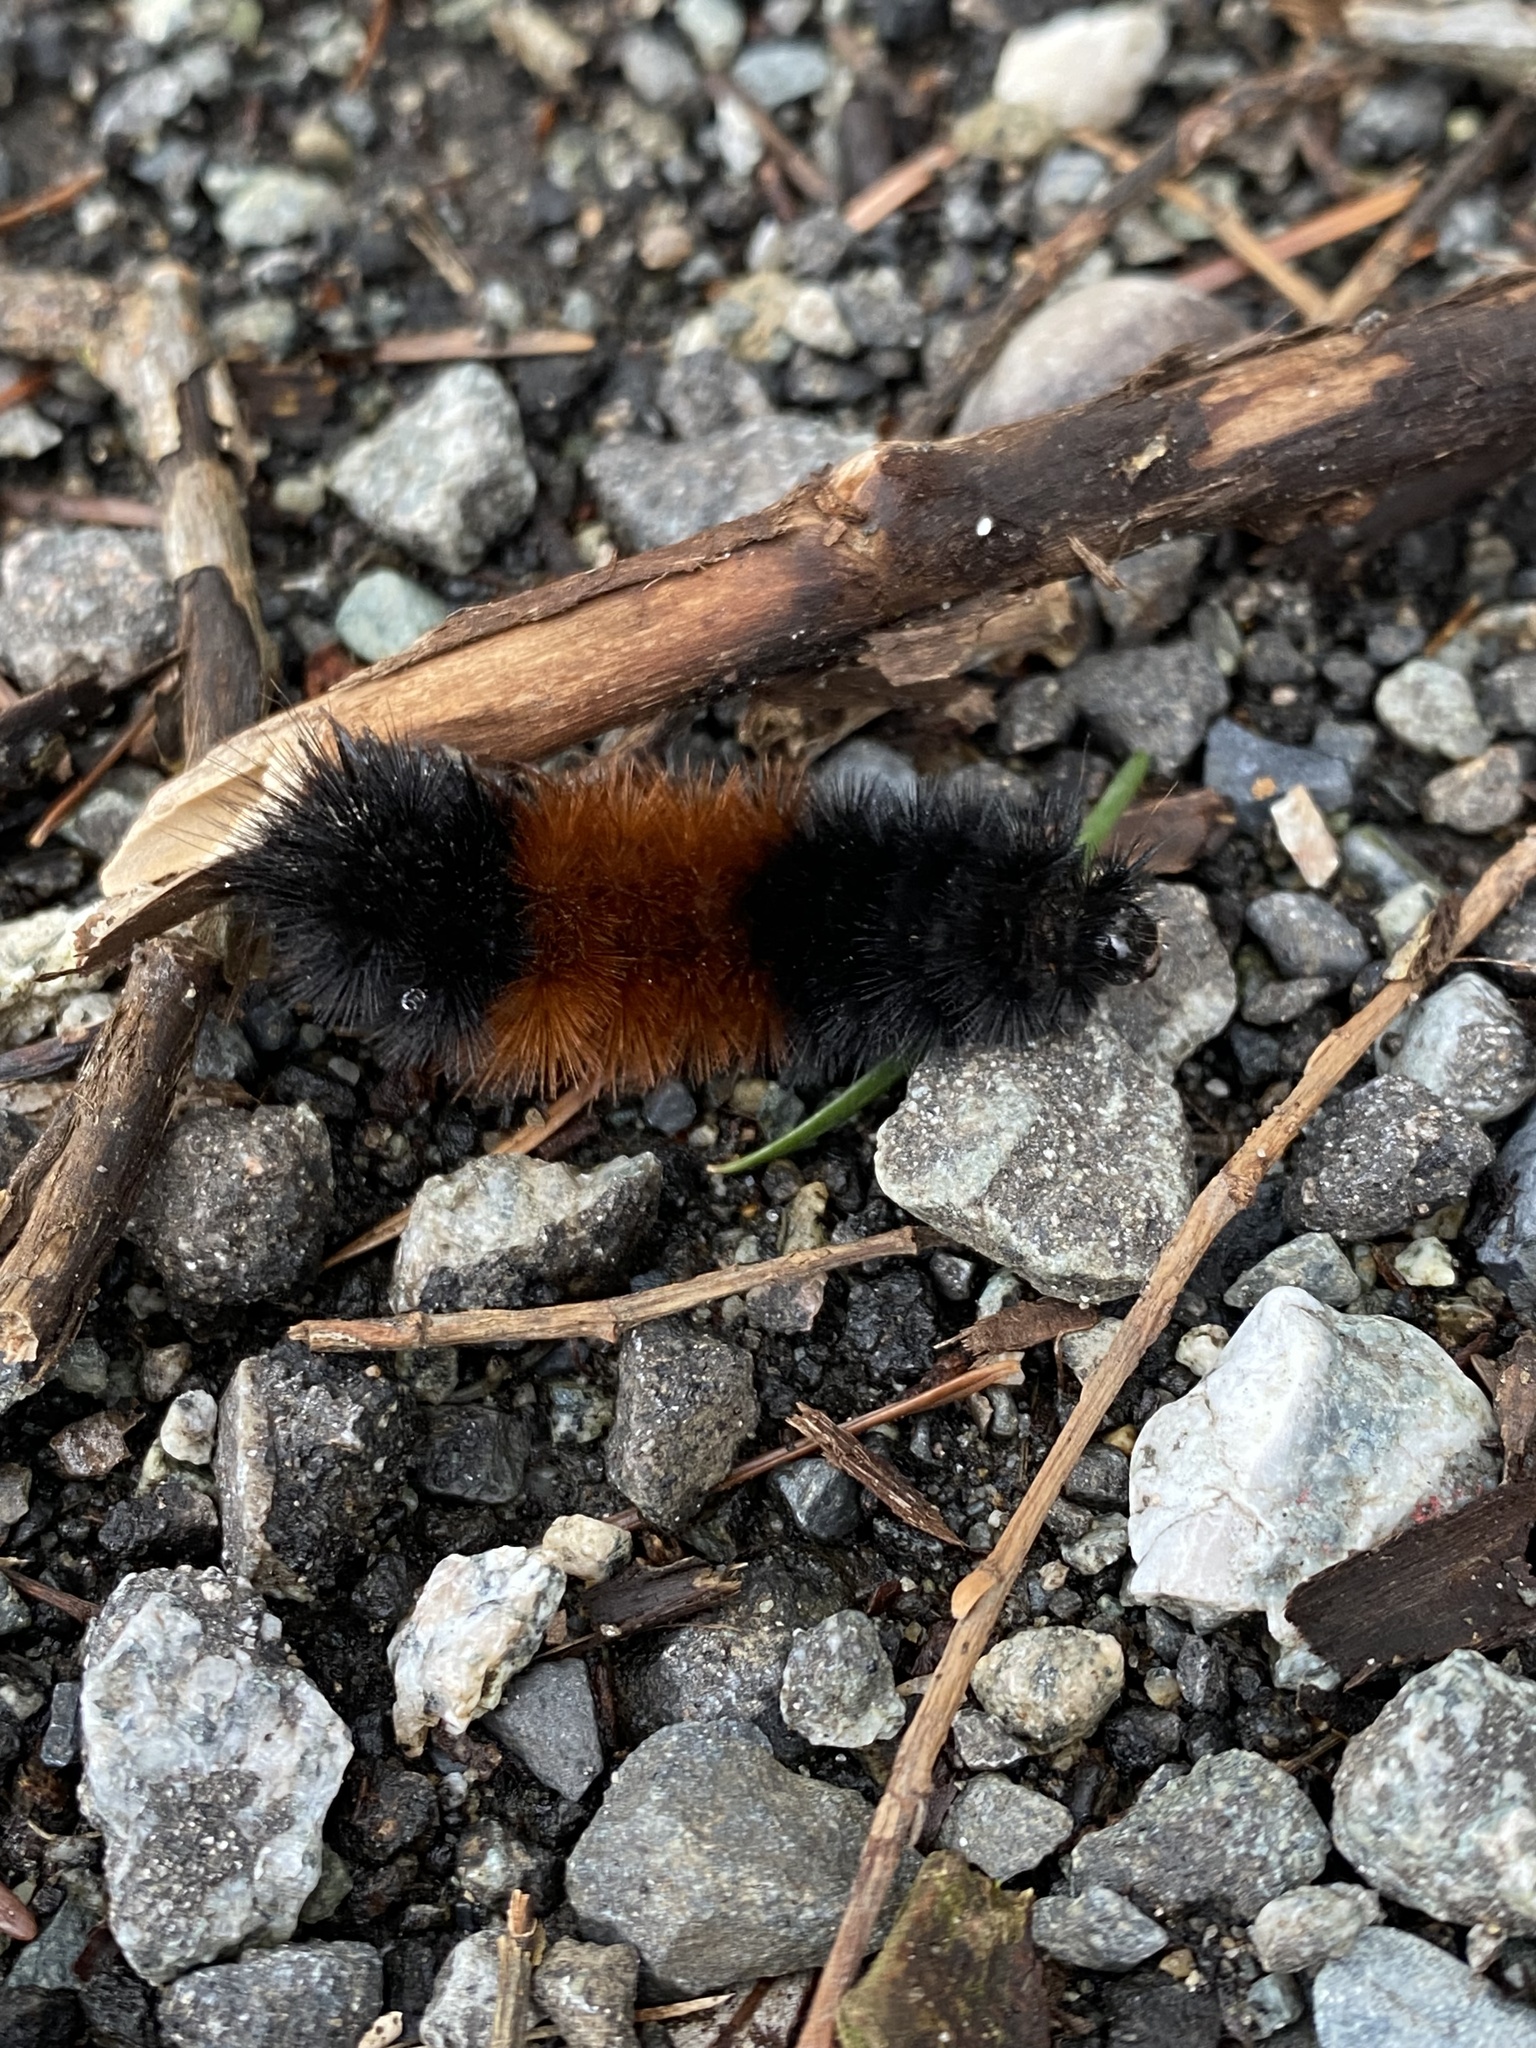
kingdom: Animalia
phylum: Arthropoda
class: Insecta
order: Lepidoptera
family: Erebidae
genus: Pyrrharctia
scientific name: Pyrrharctia isabella
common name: Isabella tiger moth
